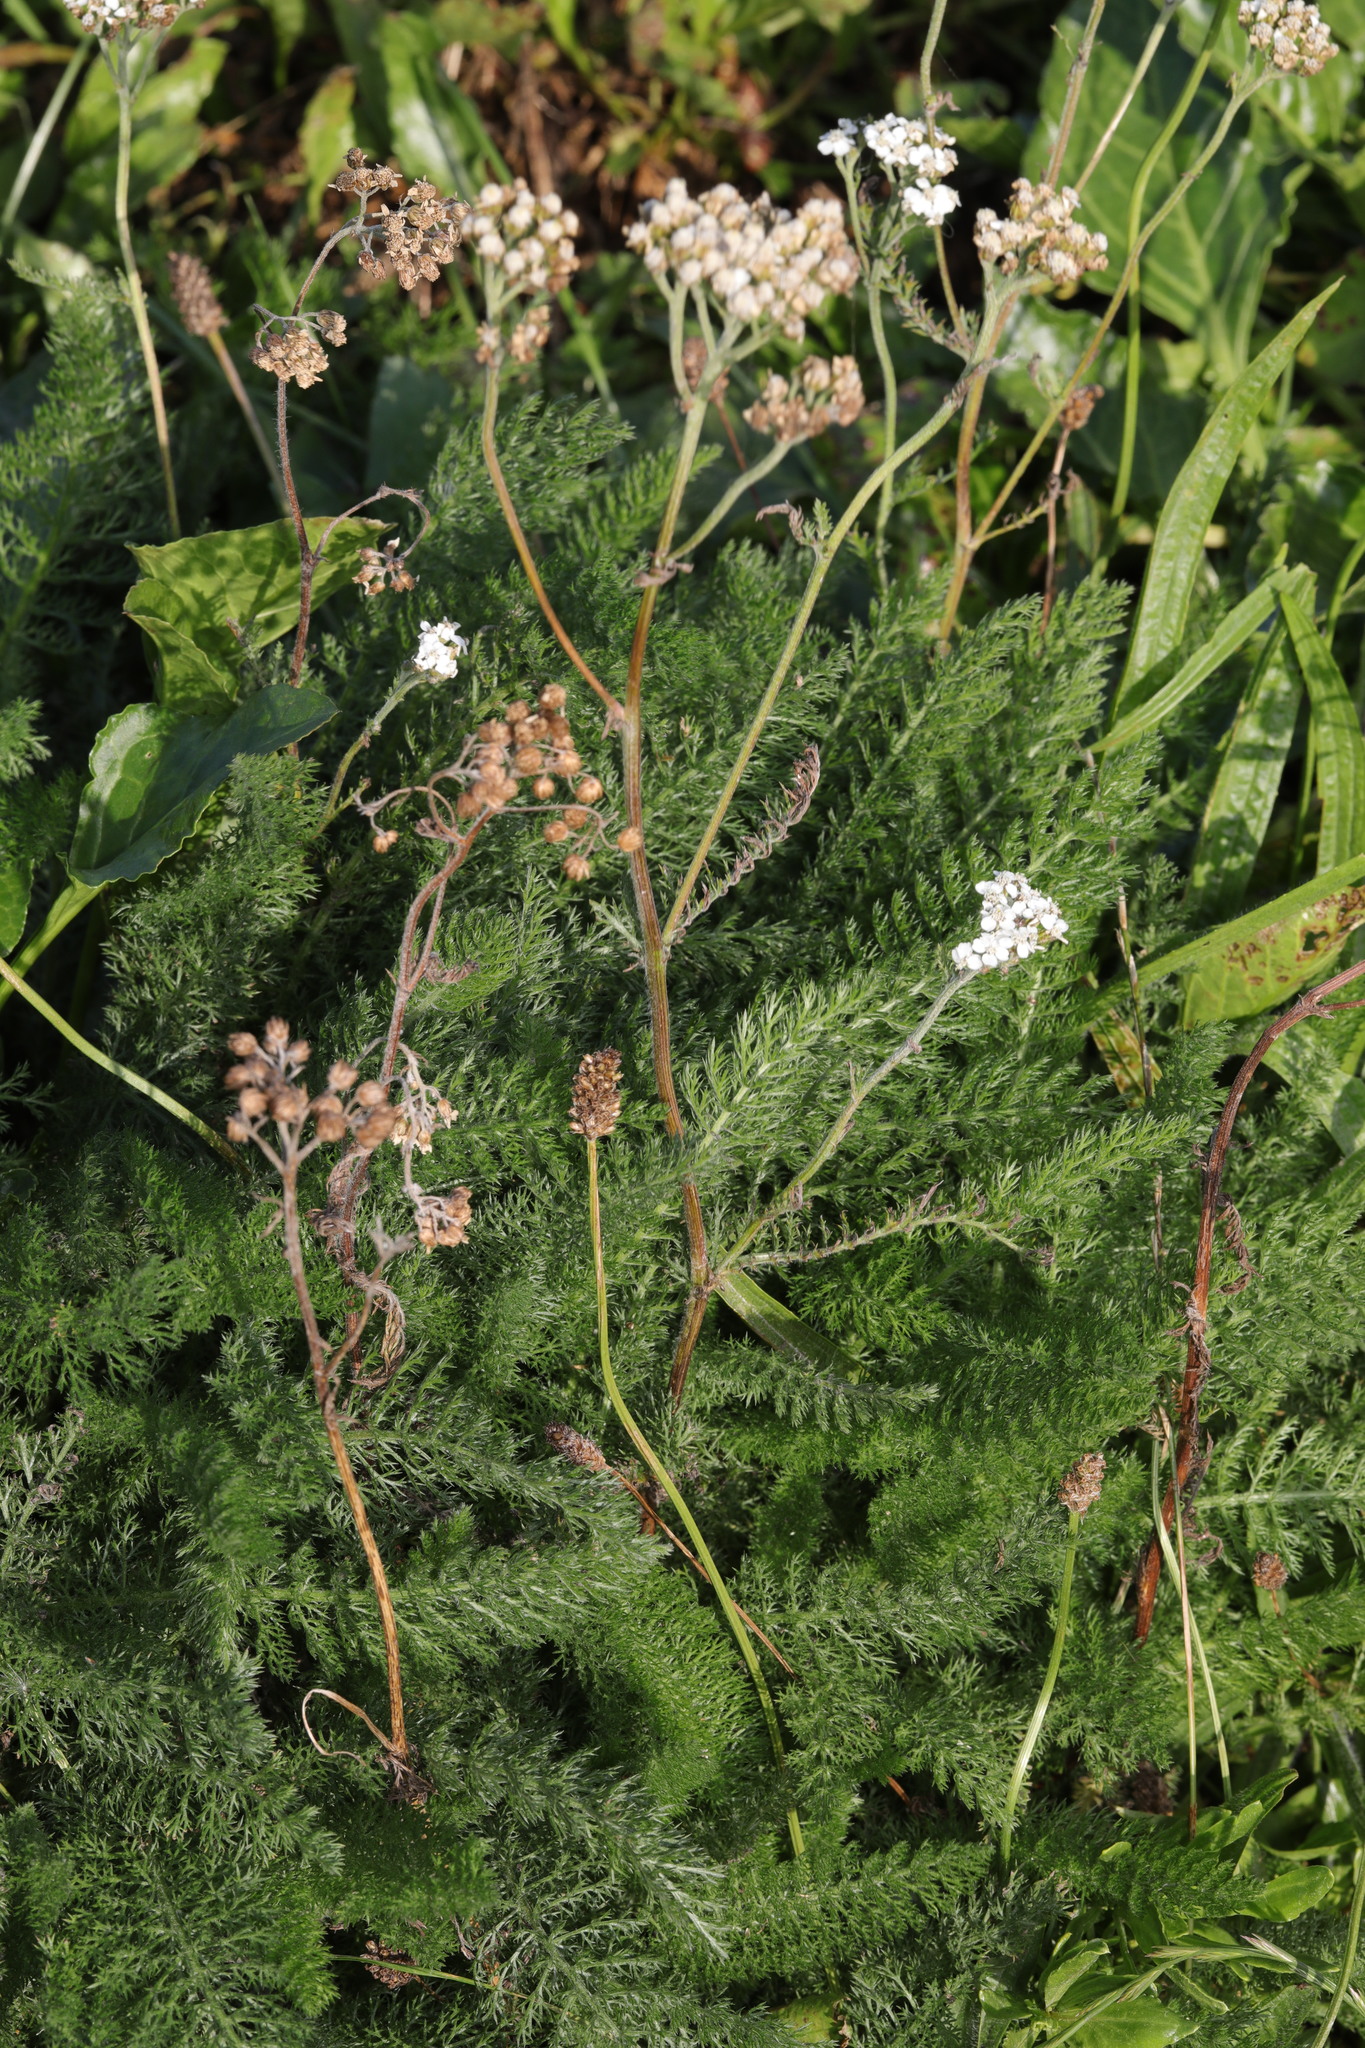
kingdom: Plantae
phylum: Tracheophyta
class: Magnoliopsida
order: Asterales
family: Asteraceae
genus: Achillea
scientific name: Achillea millefolium
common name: Yarrow
